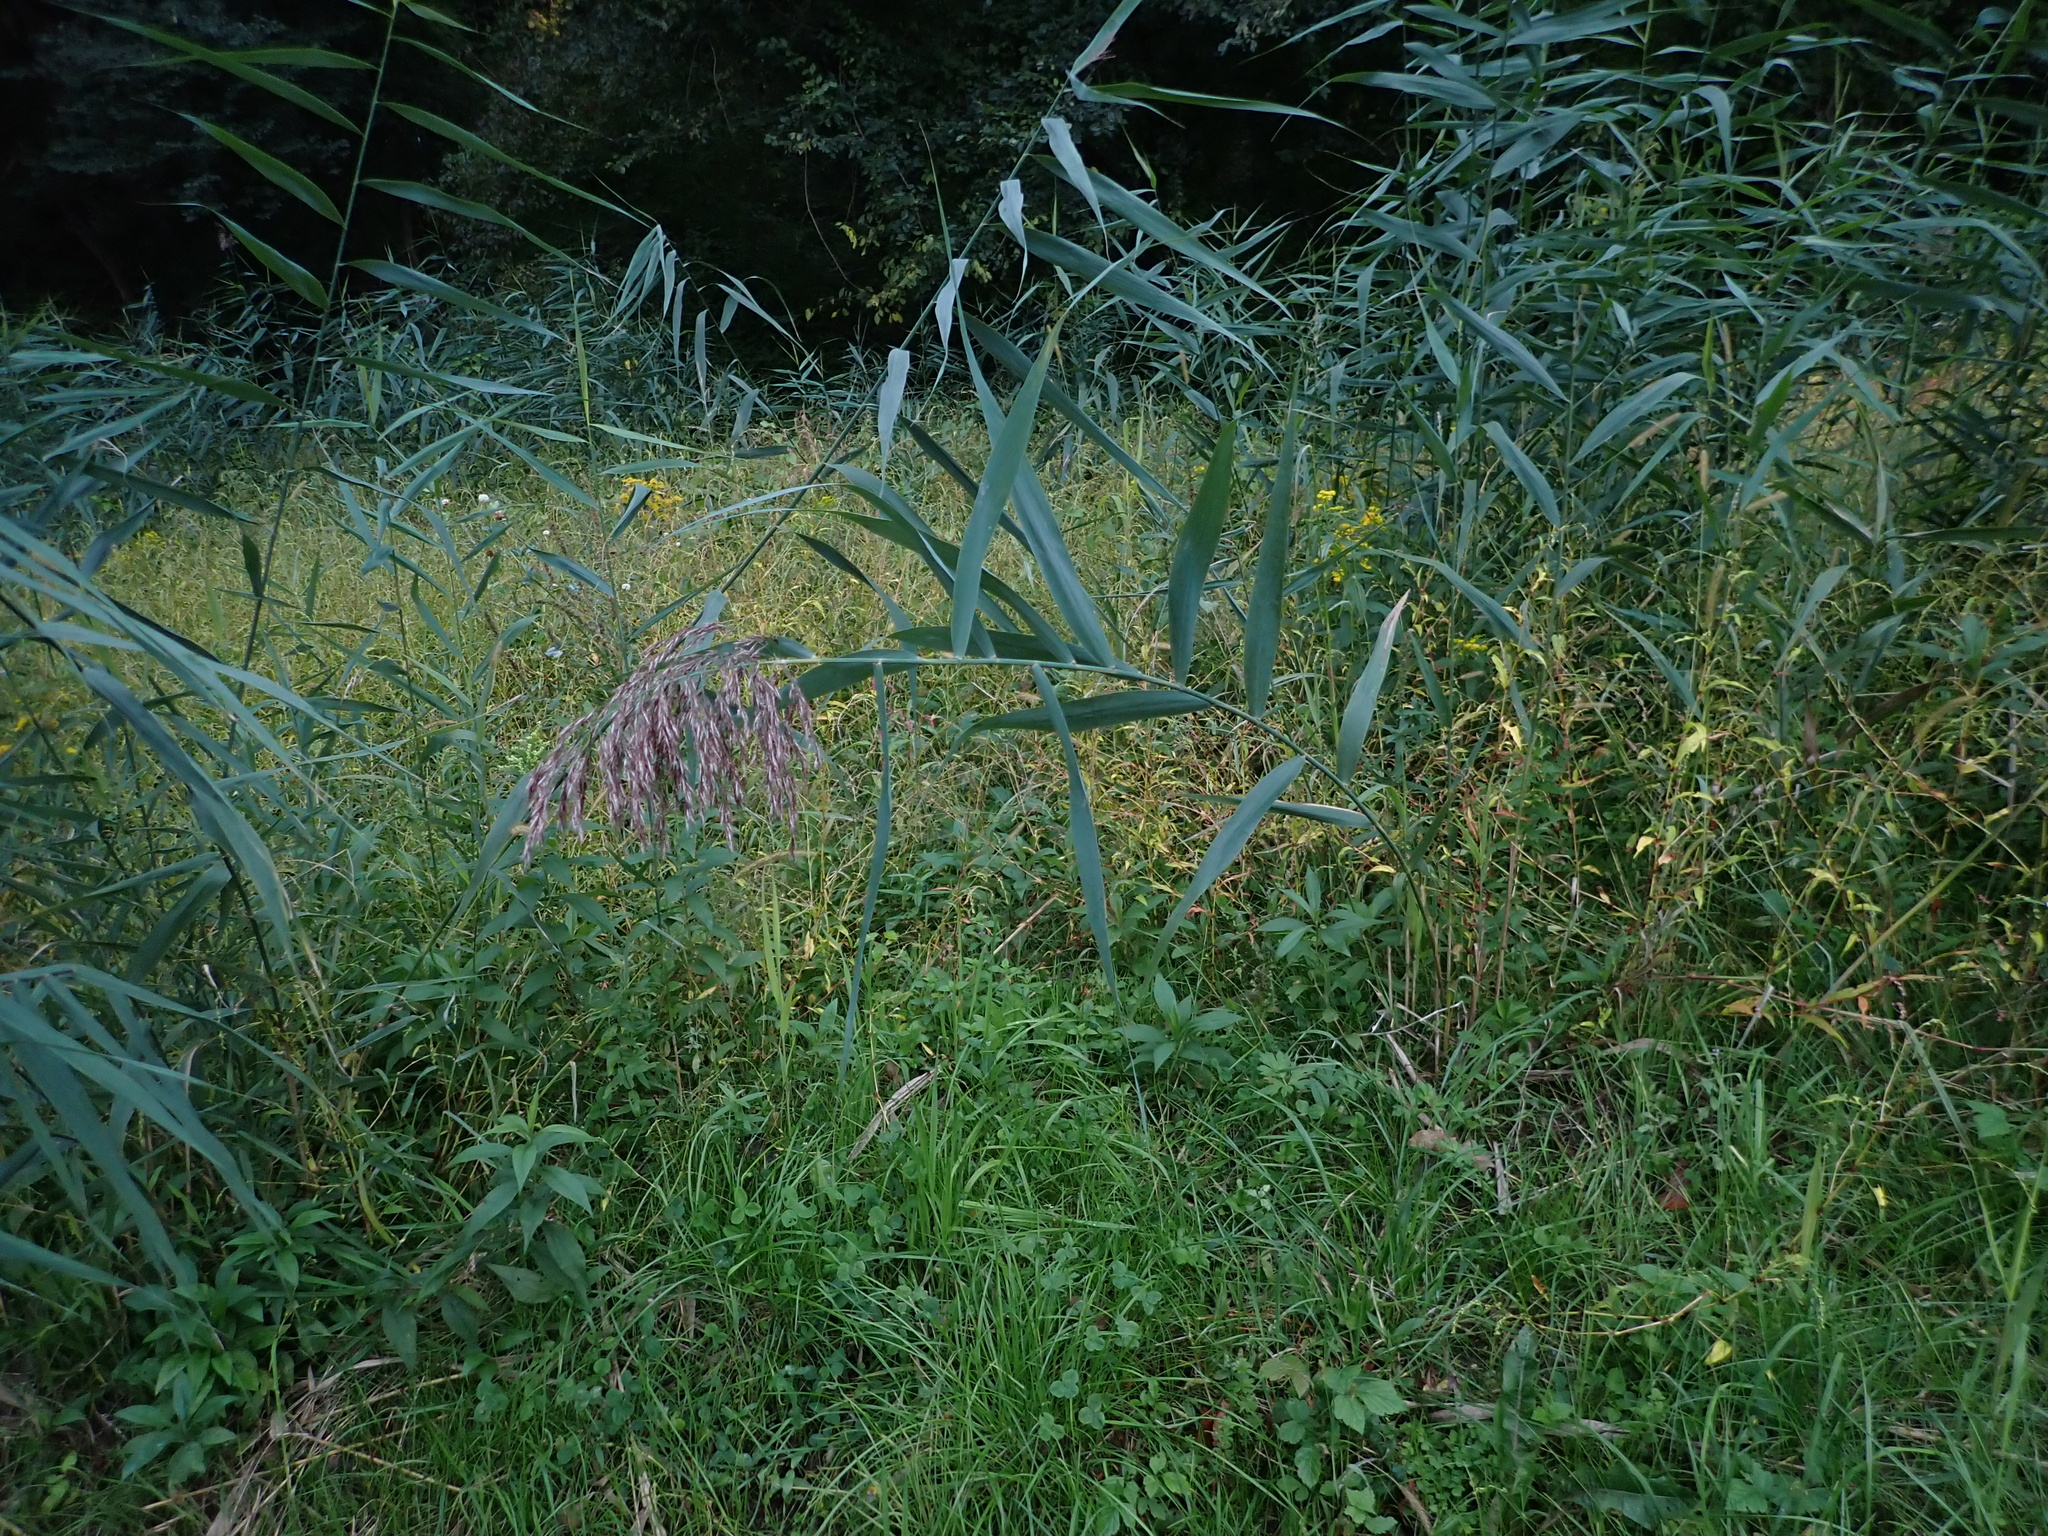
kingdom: Plantae
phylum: Tracheophyta
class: Liliopsida
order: Poales
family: Poaceae
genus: Phragmites
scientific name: Phragmites australis
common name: Common reed
